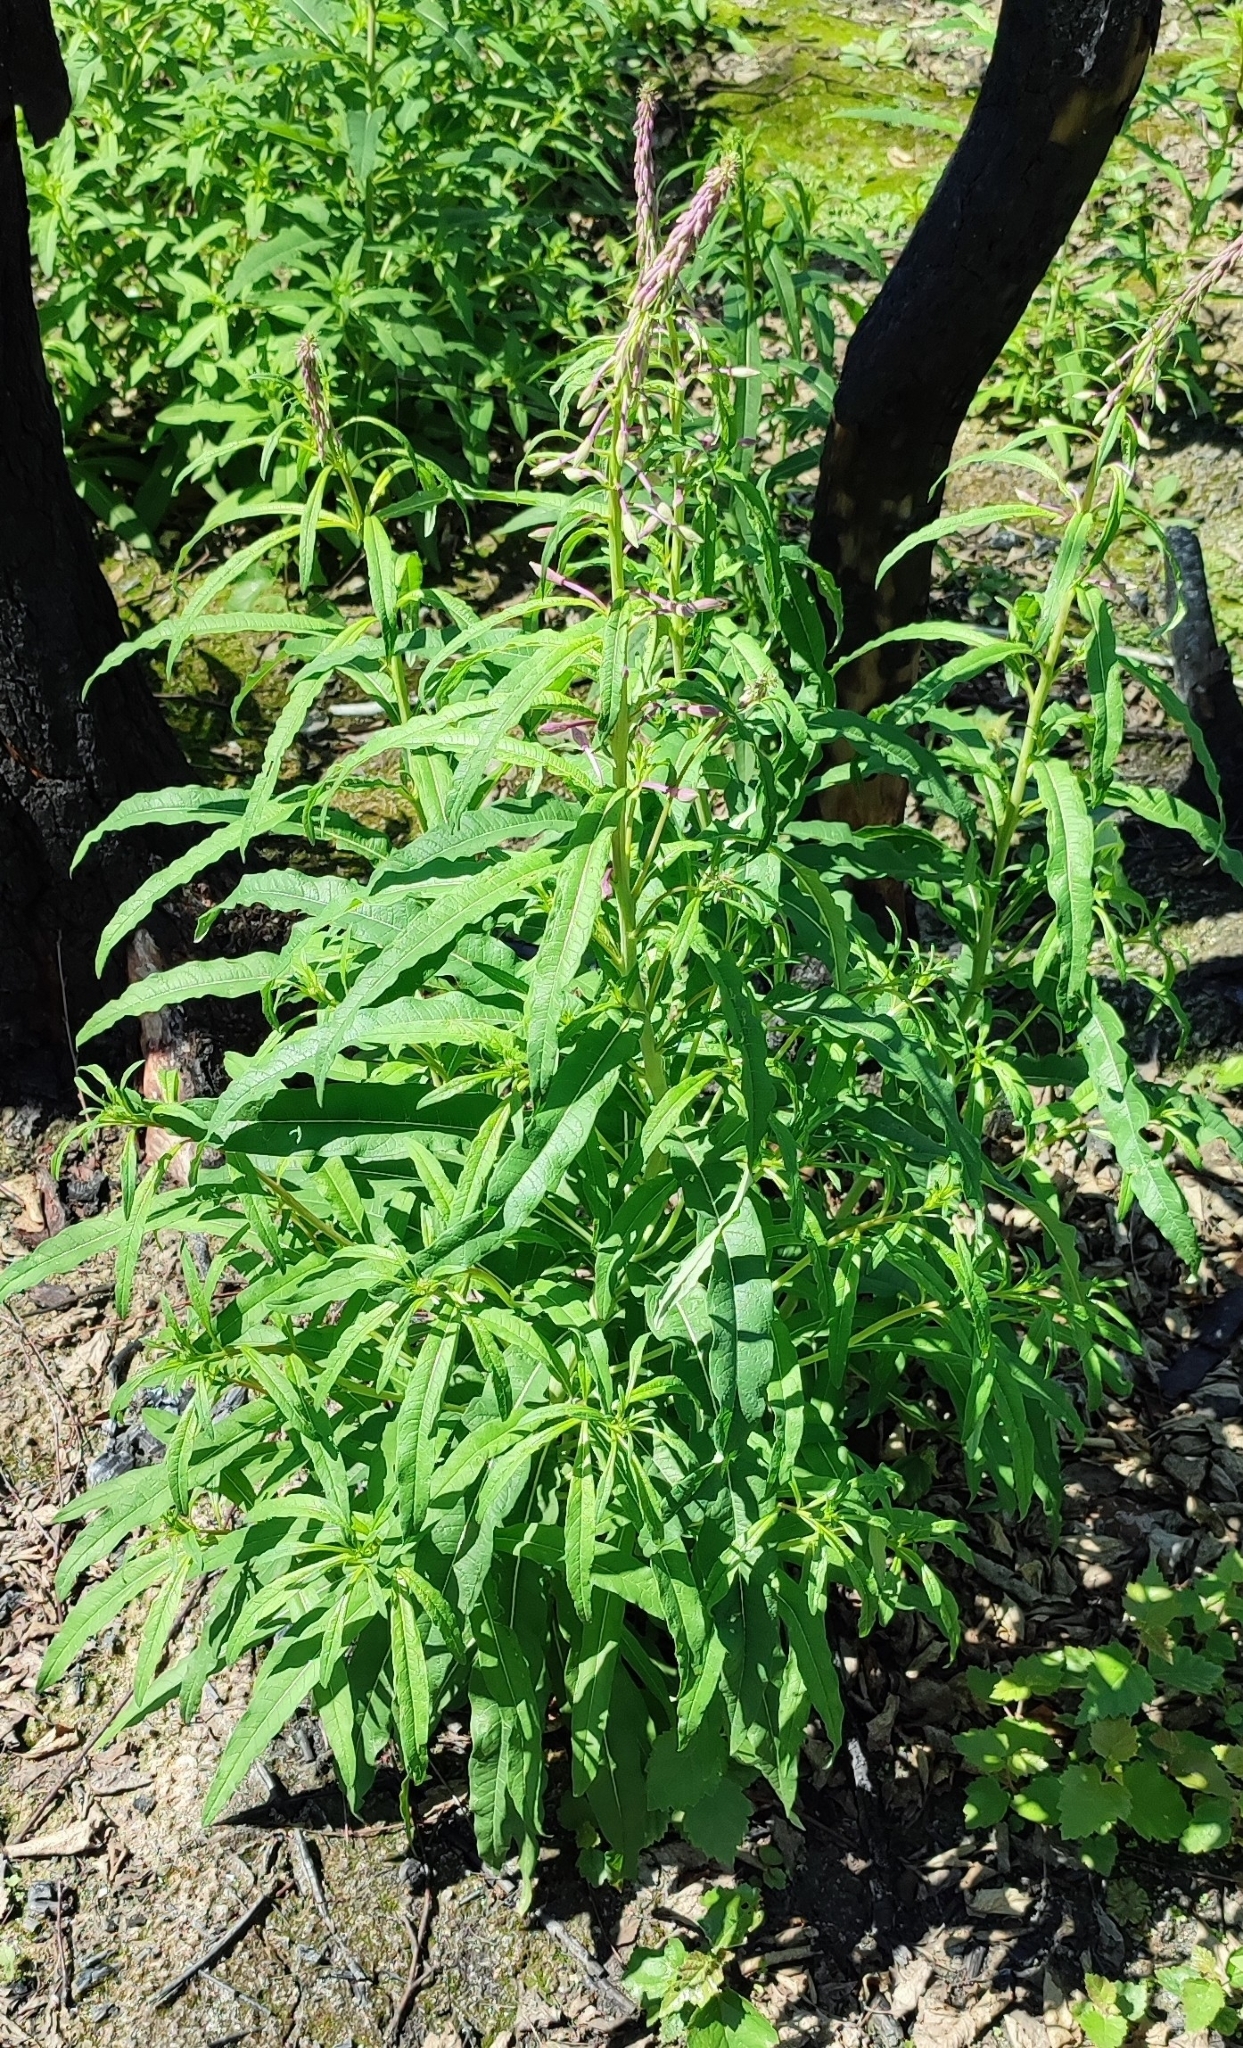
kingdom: Plantae
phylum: Tracheophyta
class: Magnoliopsida
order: Myrtales
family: Onagraceae
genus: Chamaenerion
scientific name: Chamaenerion angustifolium
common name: Fireweed
